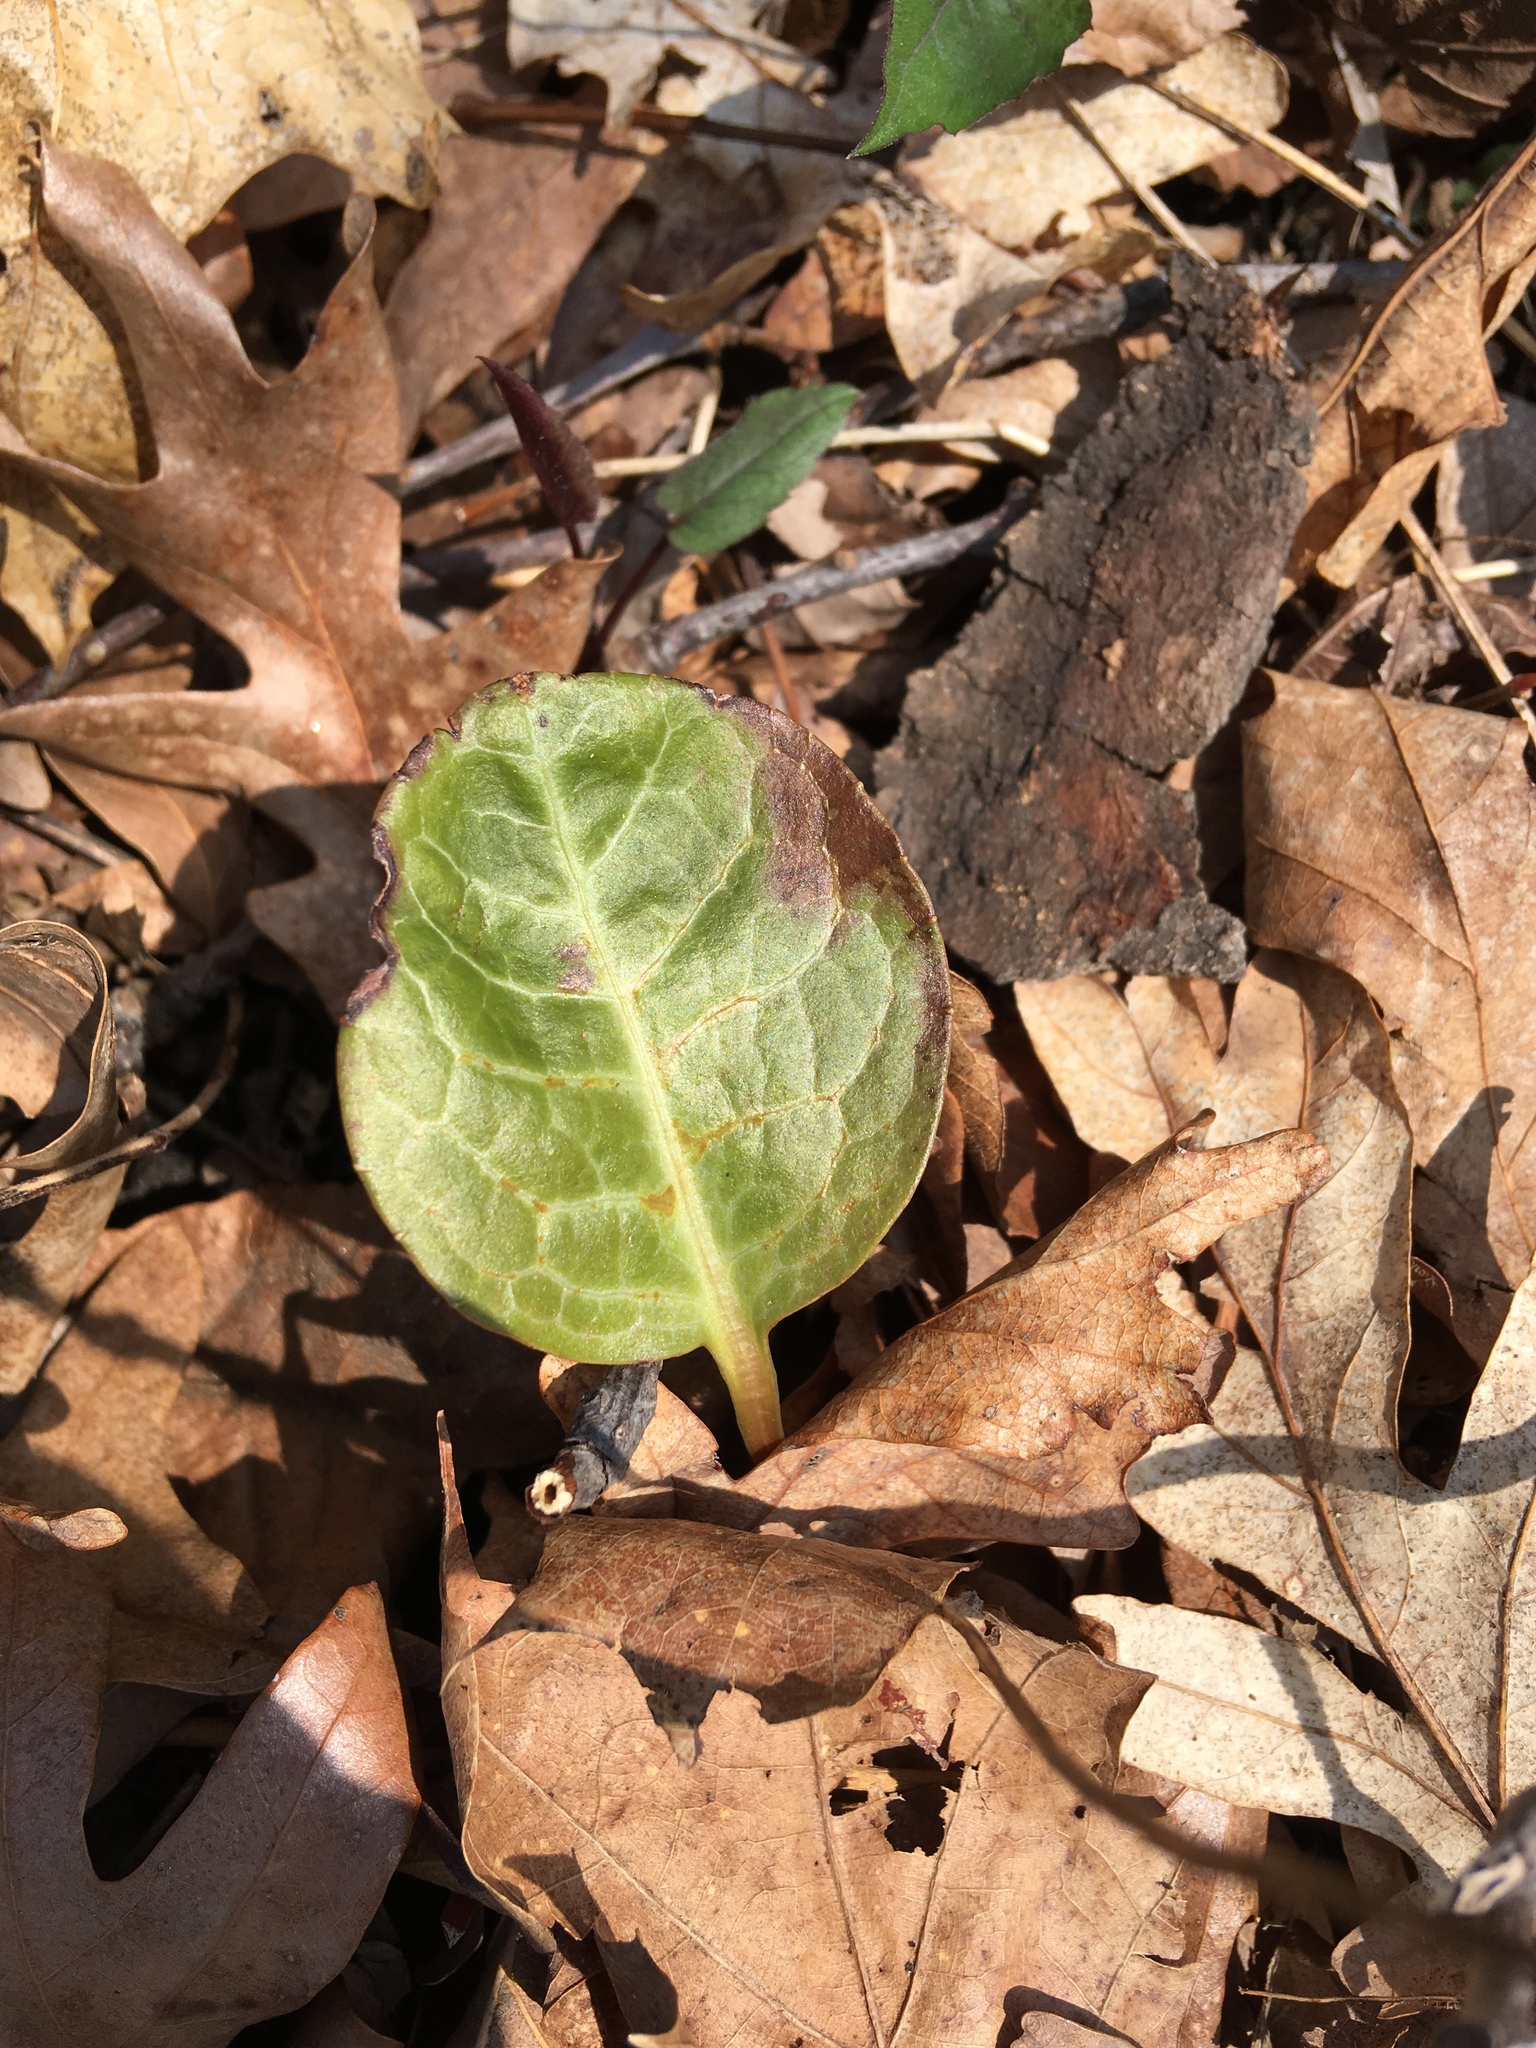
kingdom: Plantae
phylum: Tracheophyta
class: Magnoliopsida
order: Ericales
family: Ericaceae
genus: Pyrola
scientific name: Pyrola americana
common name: American wintergreen
